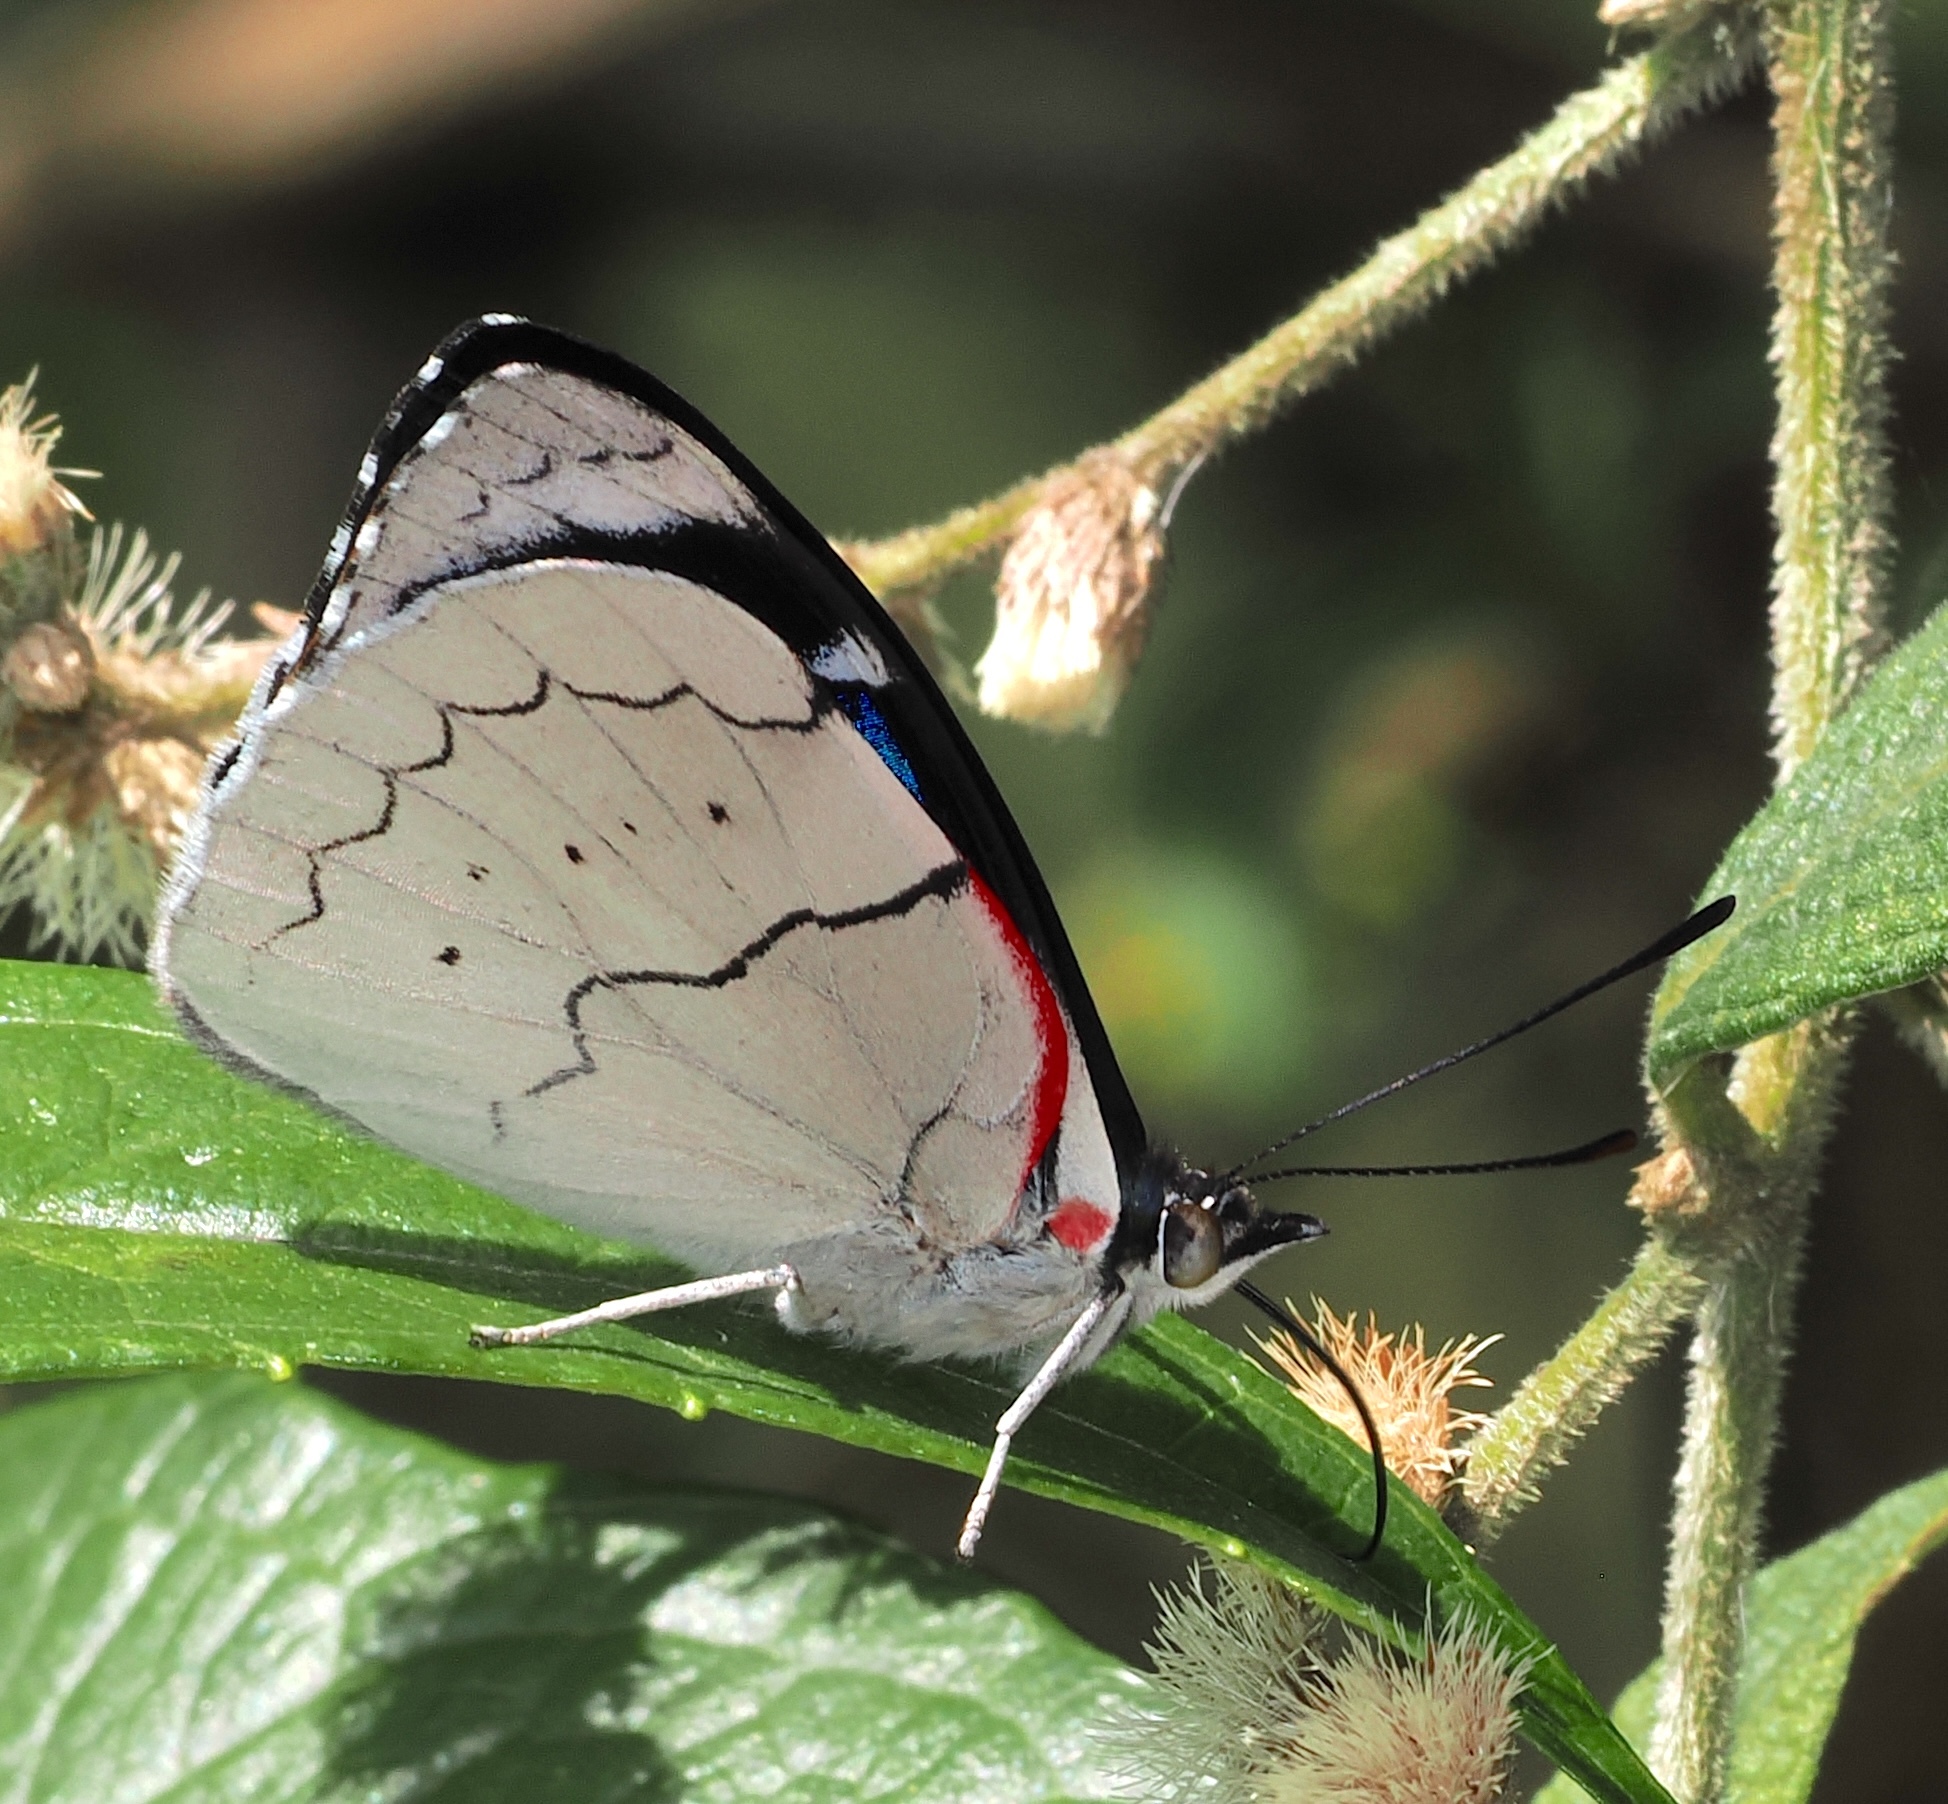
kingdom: Animalia
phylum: Arthropoda
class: Insecta
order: Lepidoptera
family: Nymphalidae
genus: Perisama
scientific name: Perisama lebasii
